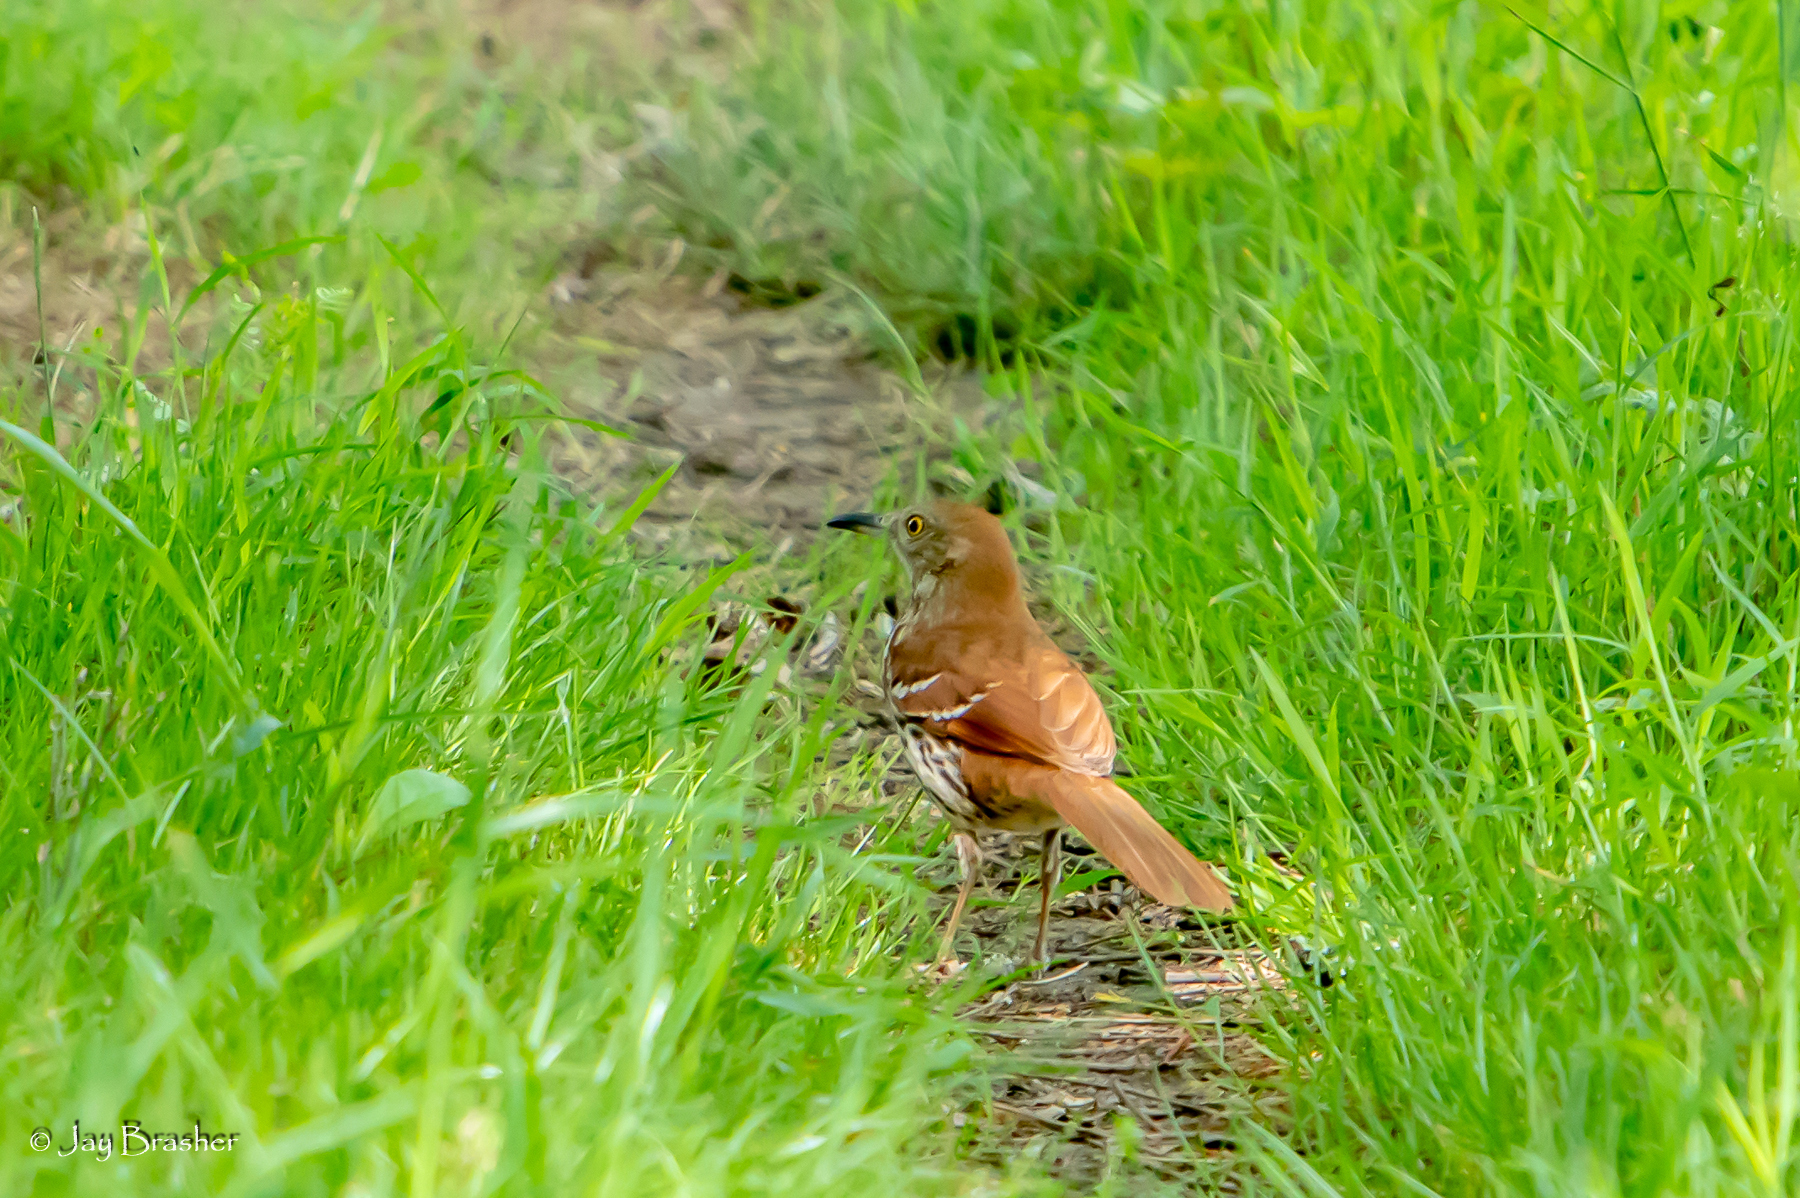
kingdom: Animalia
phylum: Chordata
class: Aves
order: Passeriformes
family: Mimidae
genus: Toxostoma
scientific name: Toxostoma rufum
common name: Brown thrasher
